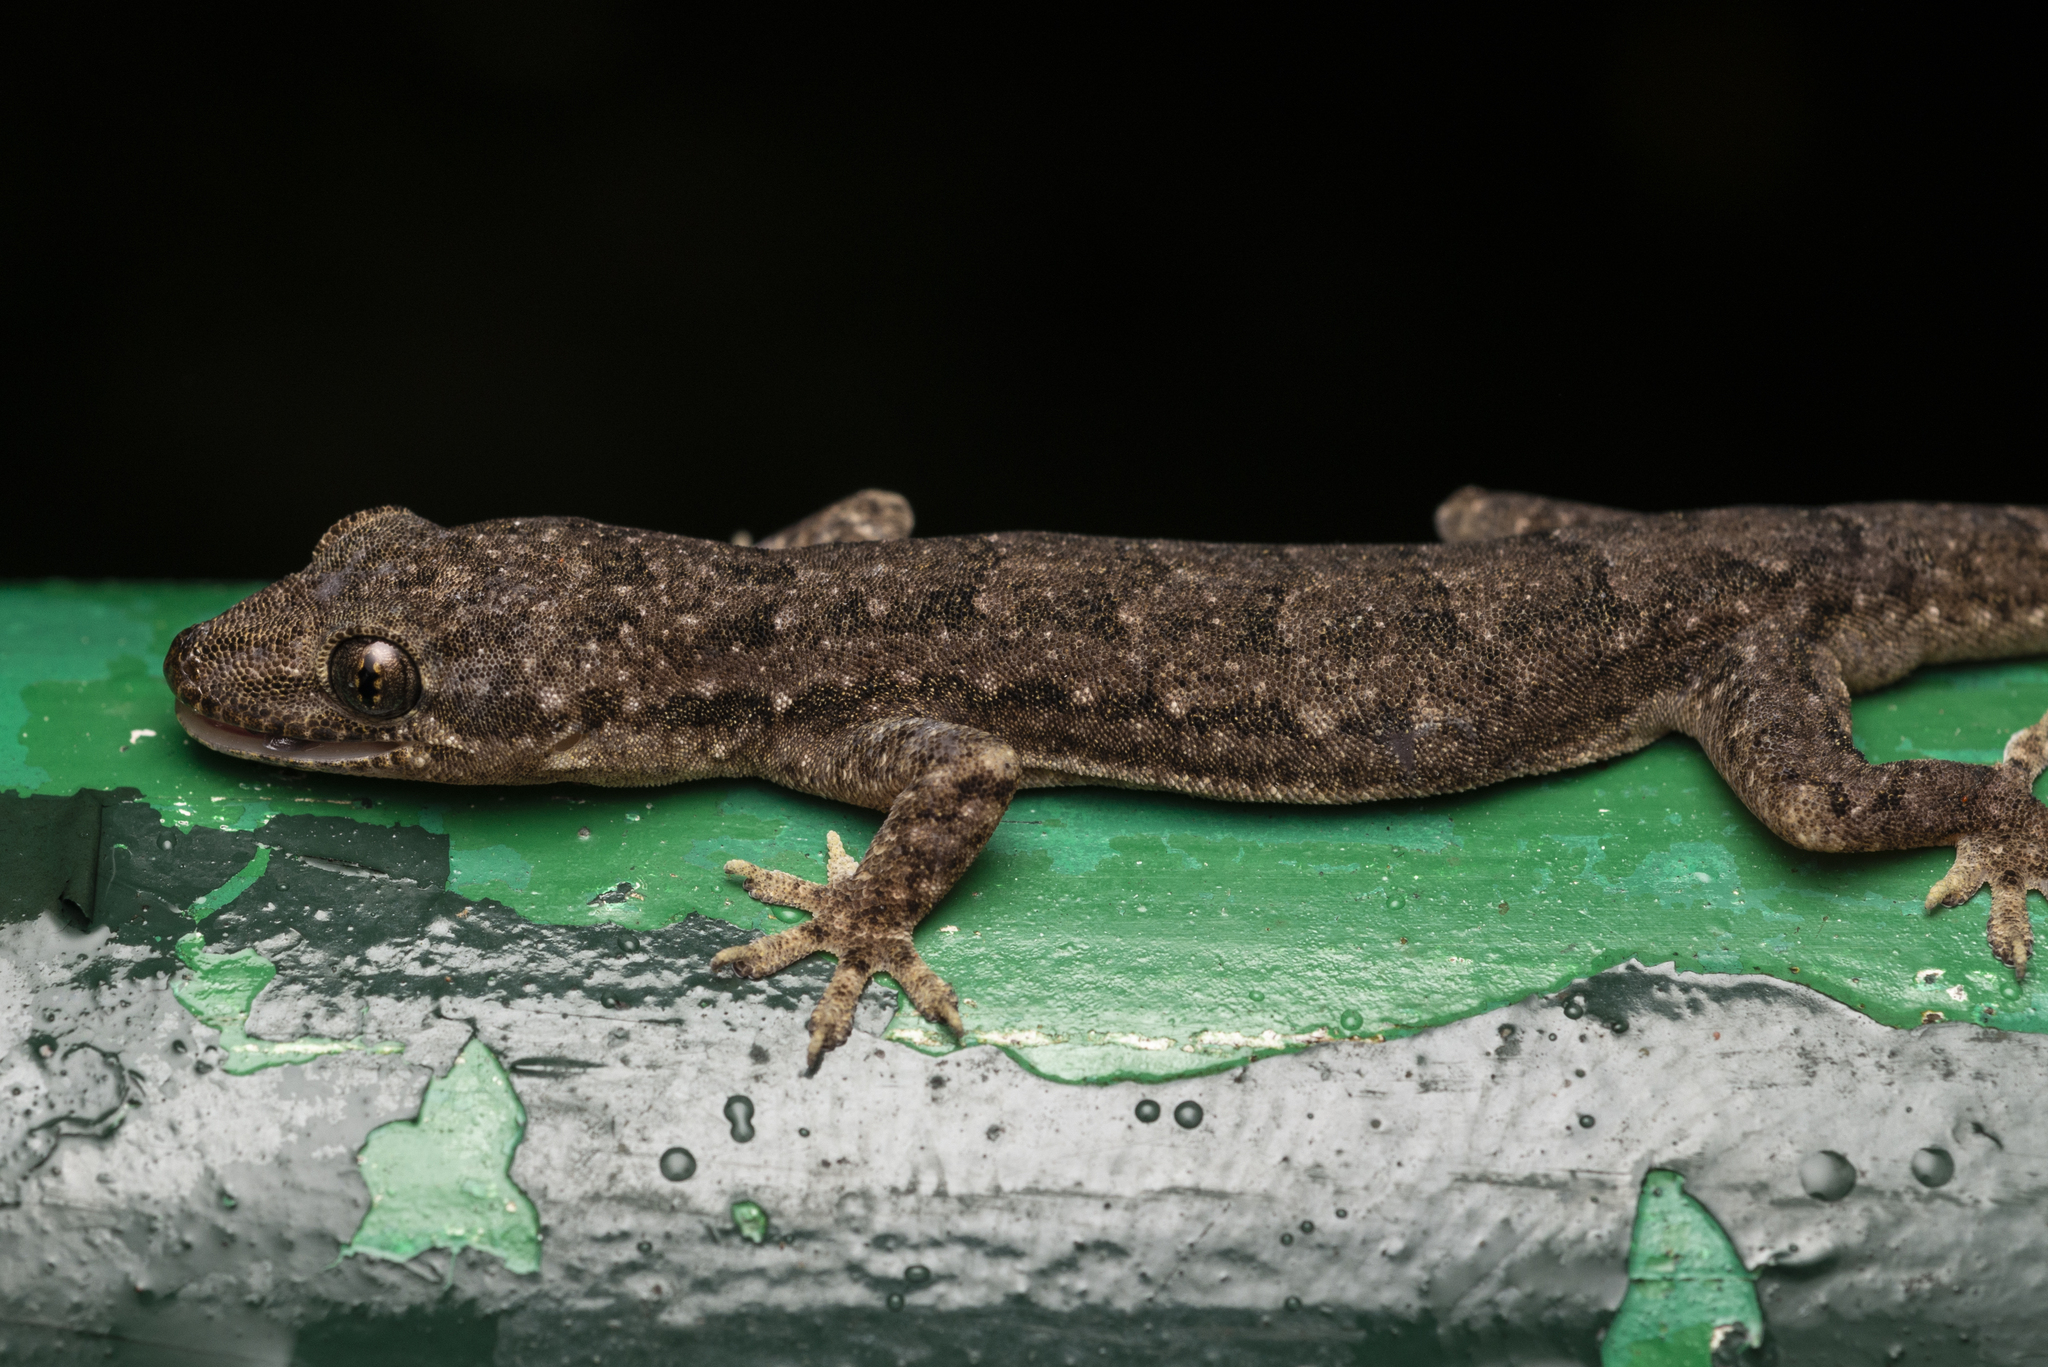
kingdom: Animalia
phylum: Chordata
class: Squamata
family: Gekkonidae
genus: Hemidactylus
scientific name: Hemidactylus bowringii
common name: Oriental leaf-toed gecko
